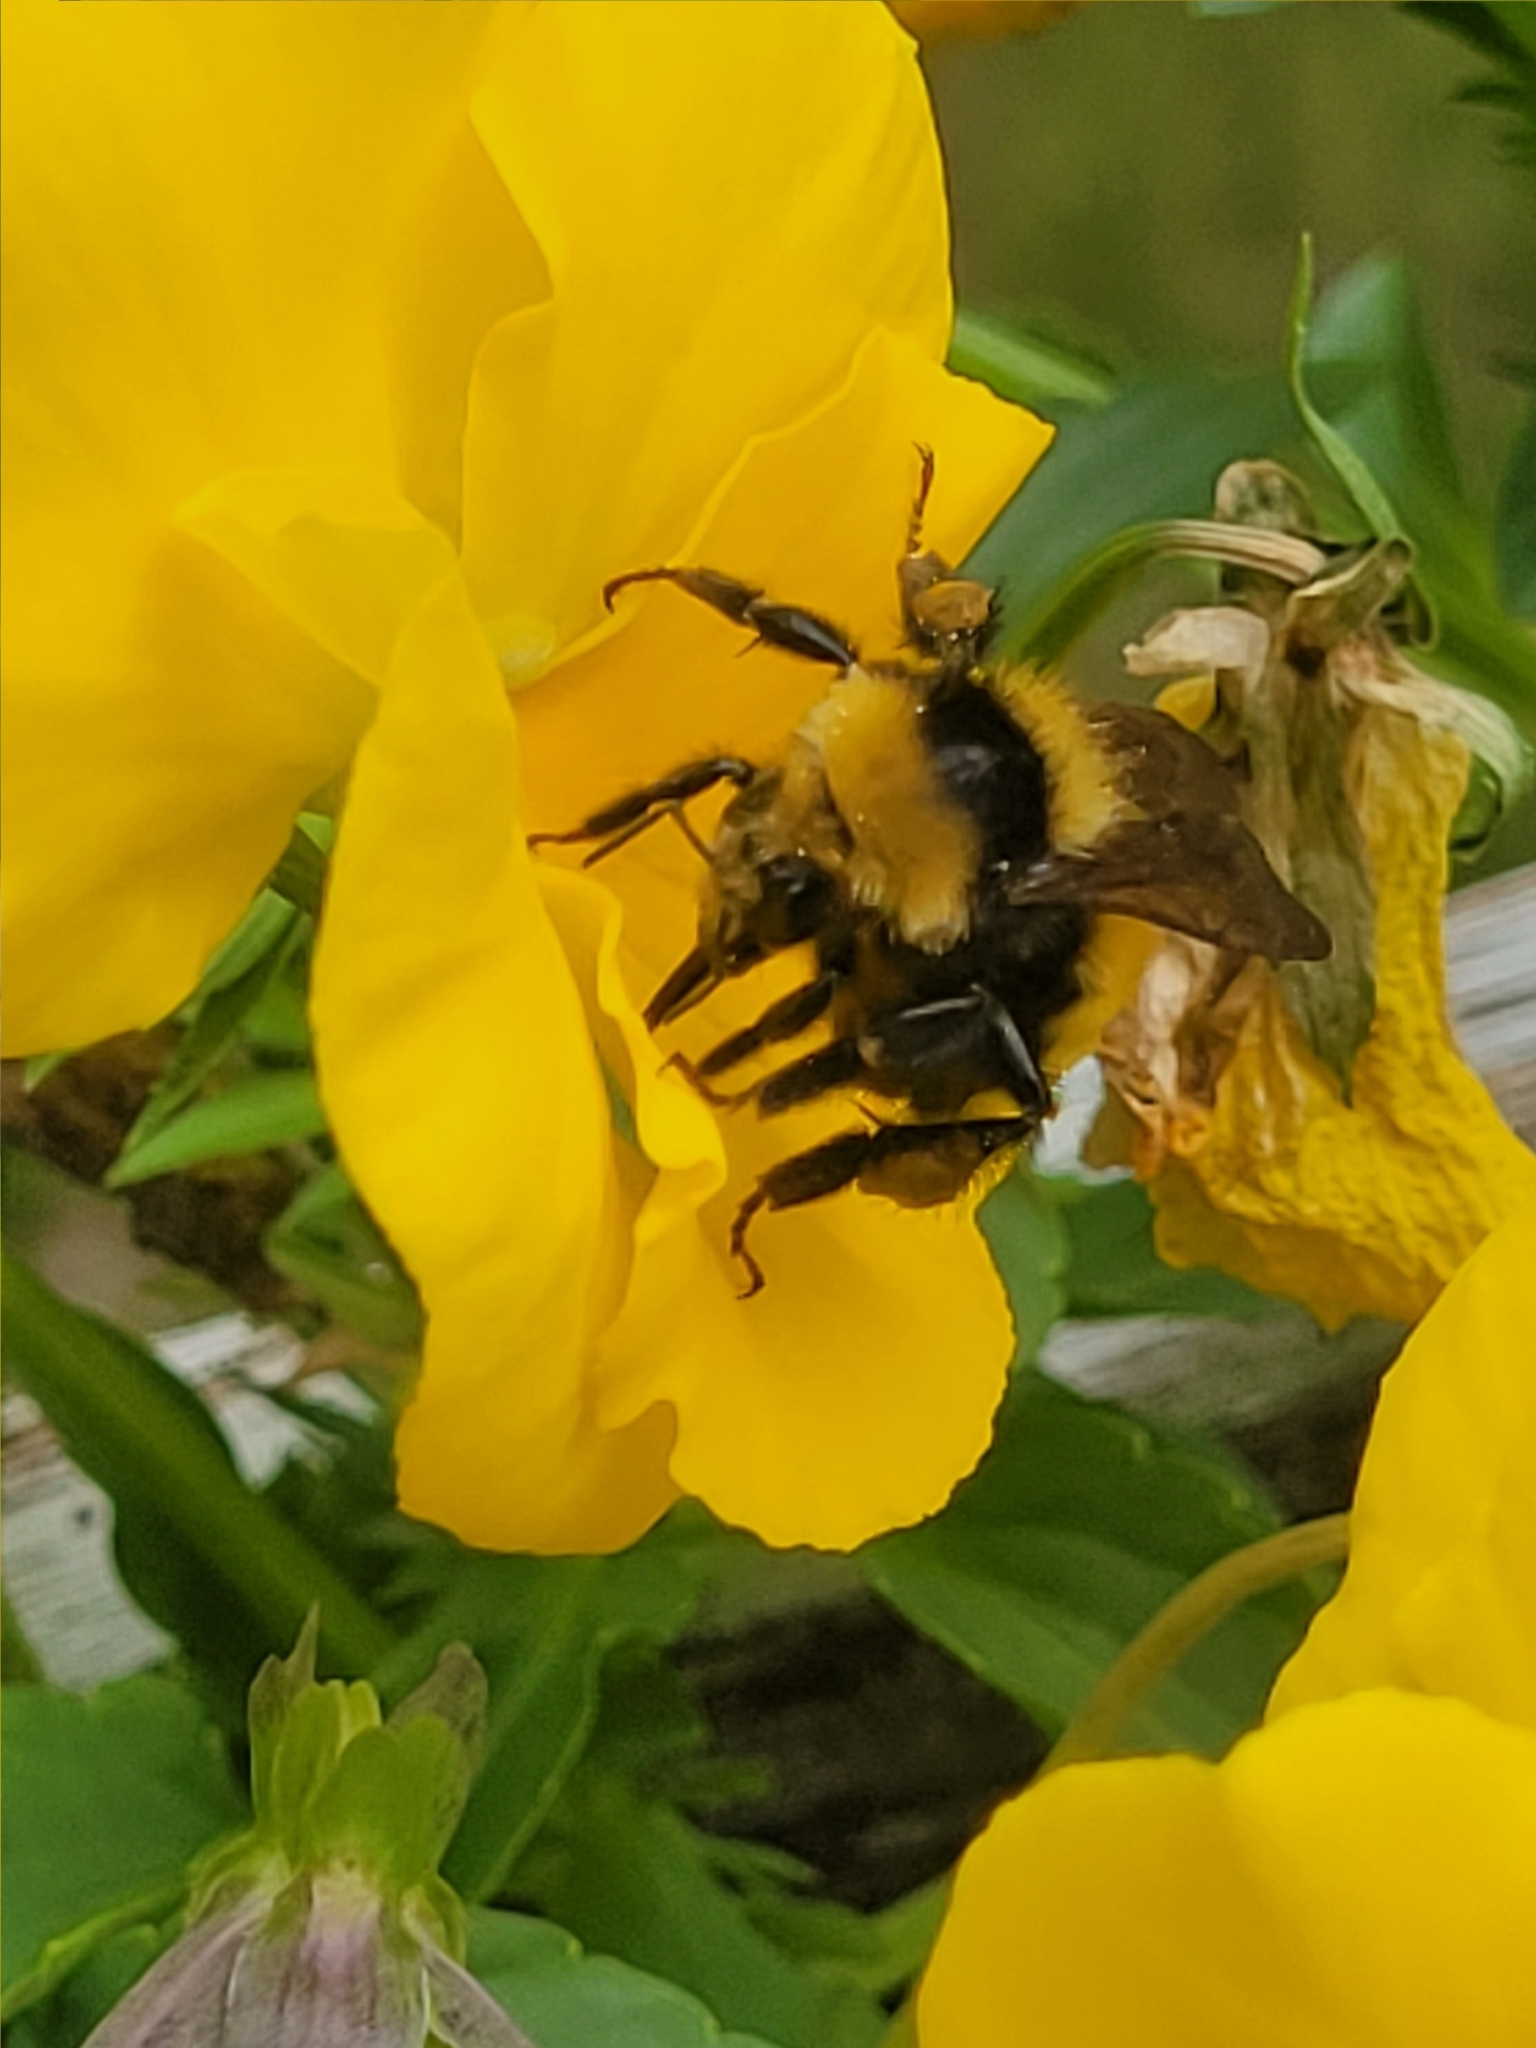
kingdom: Animalia
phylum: Arthropoda
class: Insecta
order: Hymenoptera
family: Apidae
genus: Bombus
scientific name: Bombus borealis
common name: Northern amber bumble bee
